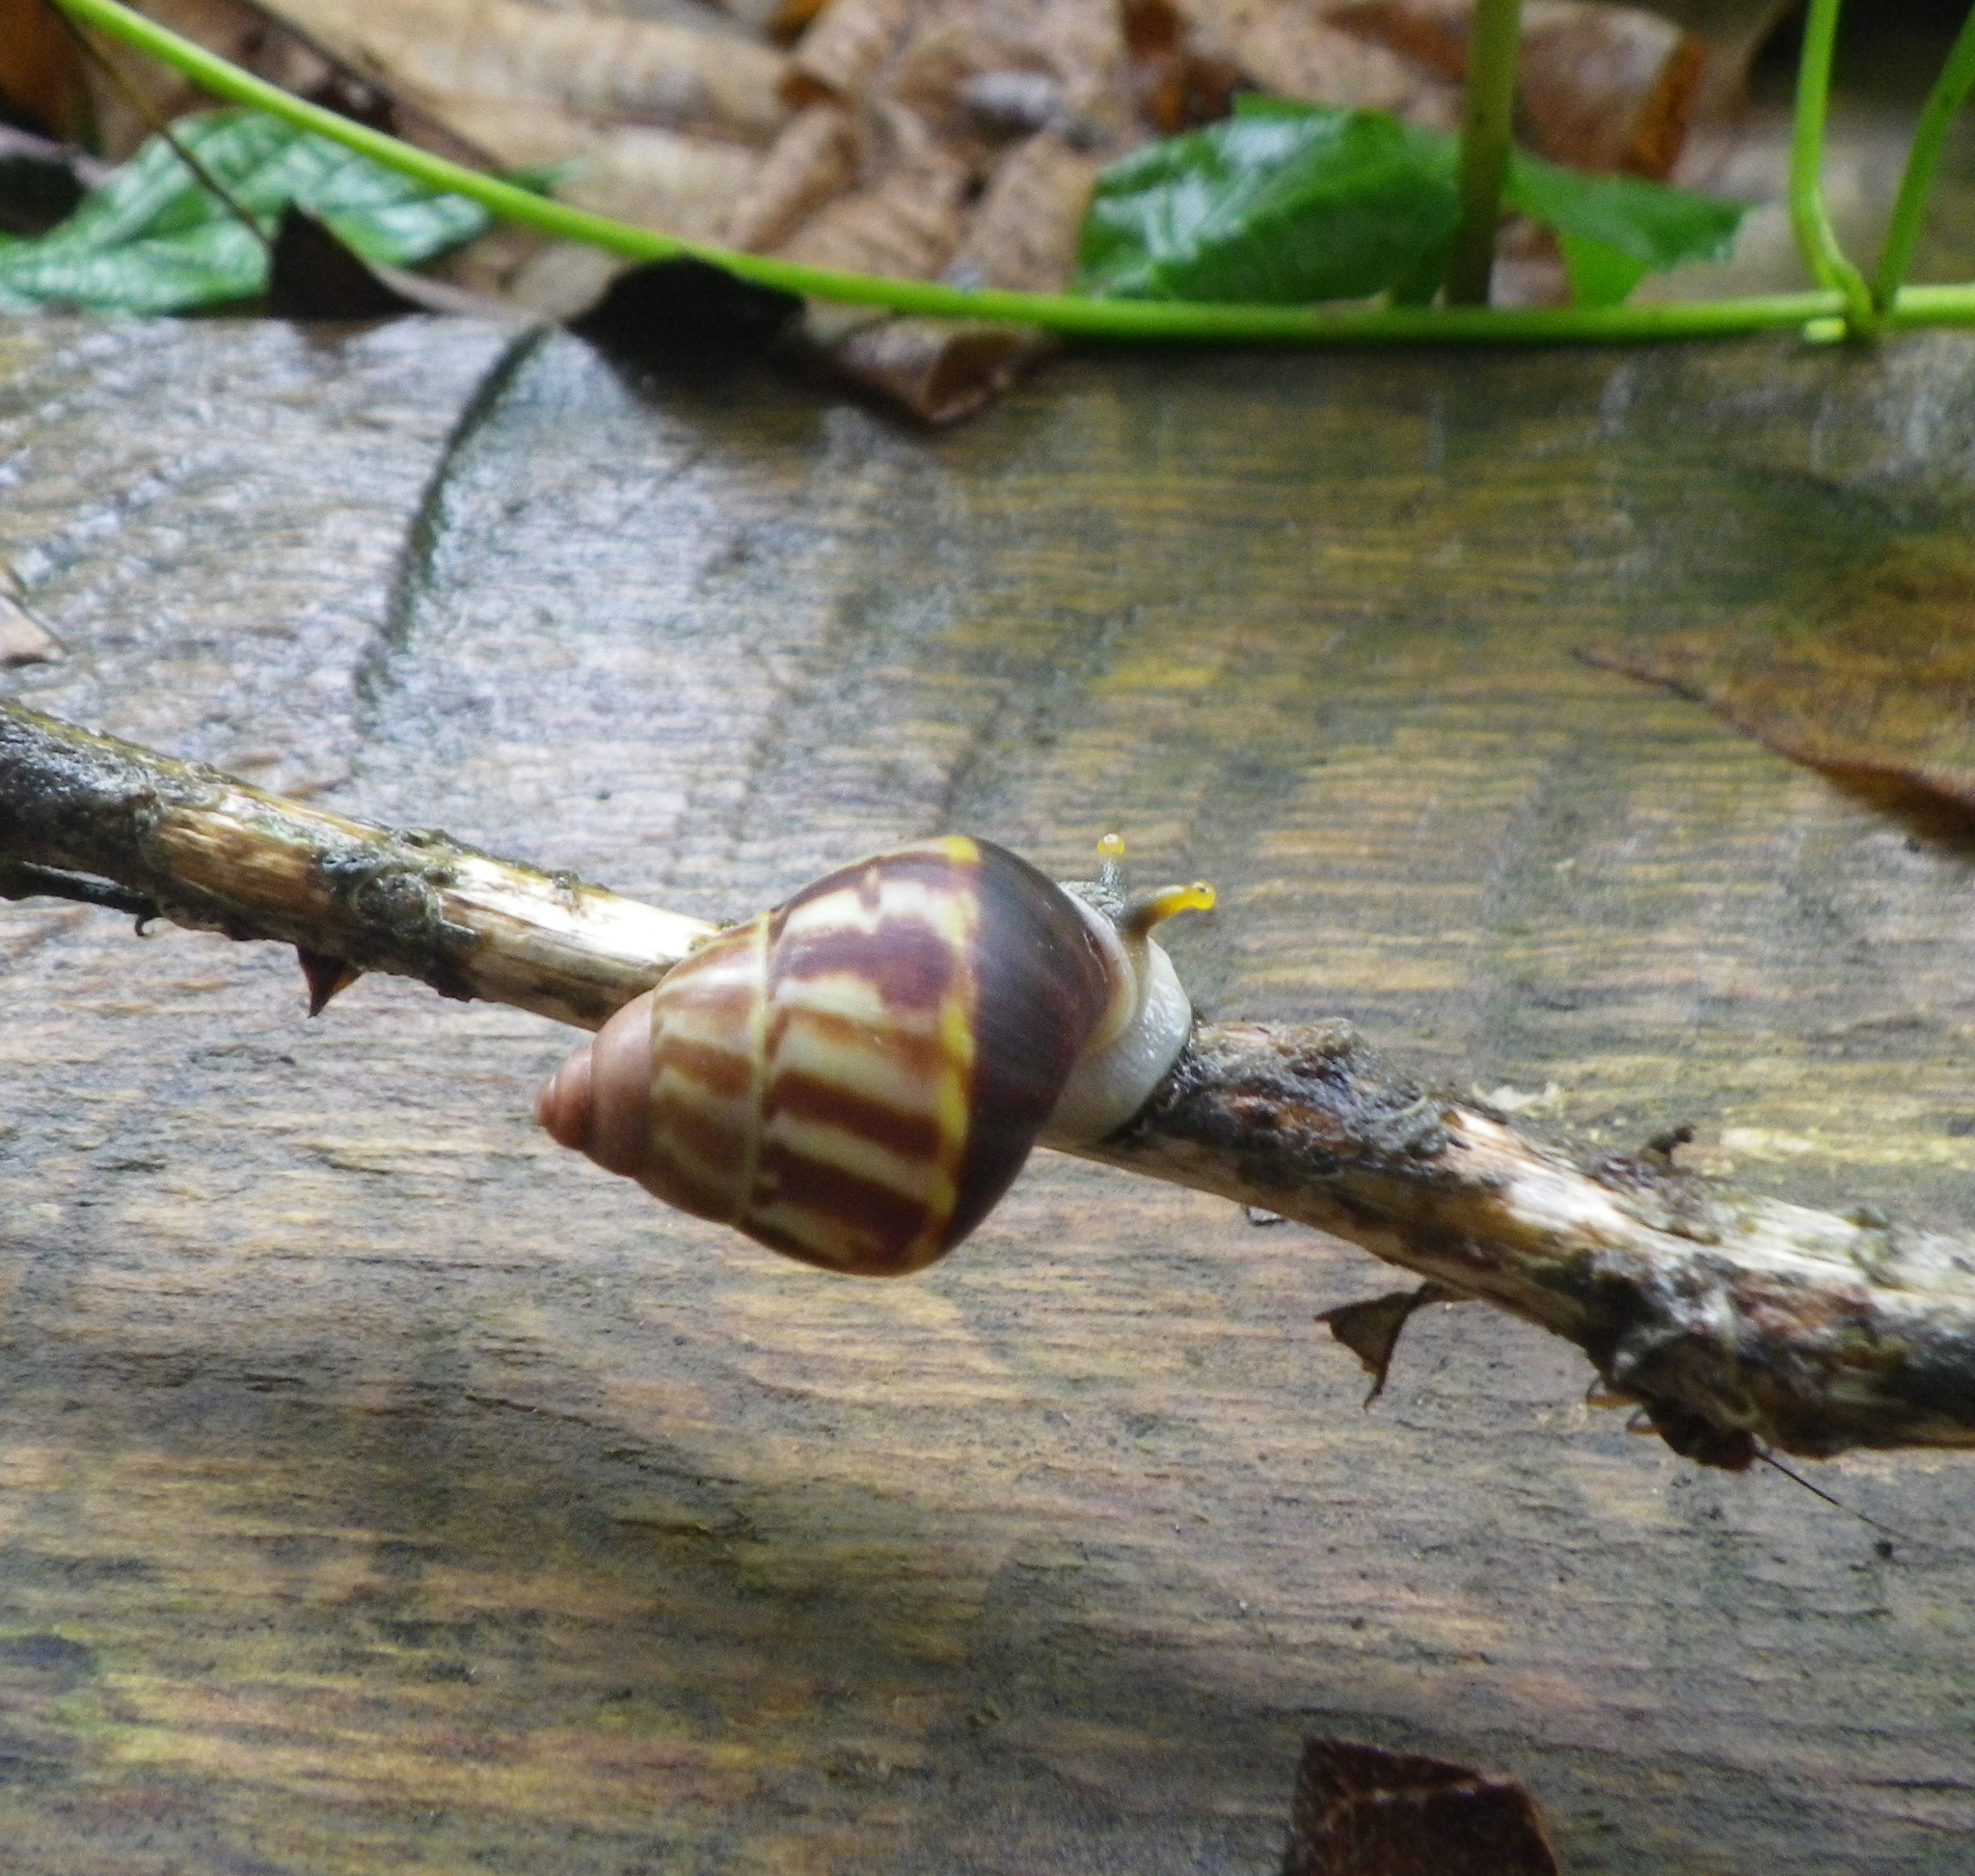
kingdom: Animalia
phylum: Mollusca
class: Gastropoda
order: Stylommatophora
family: Camaenidae
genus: Amphidromus
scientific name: Amphidromus perversus
